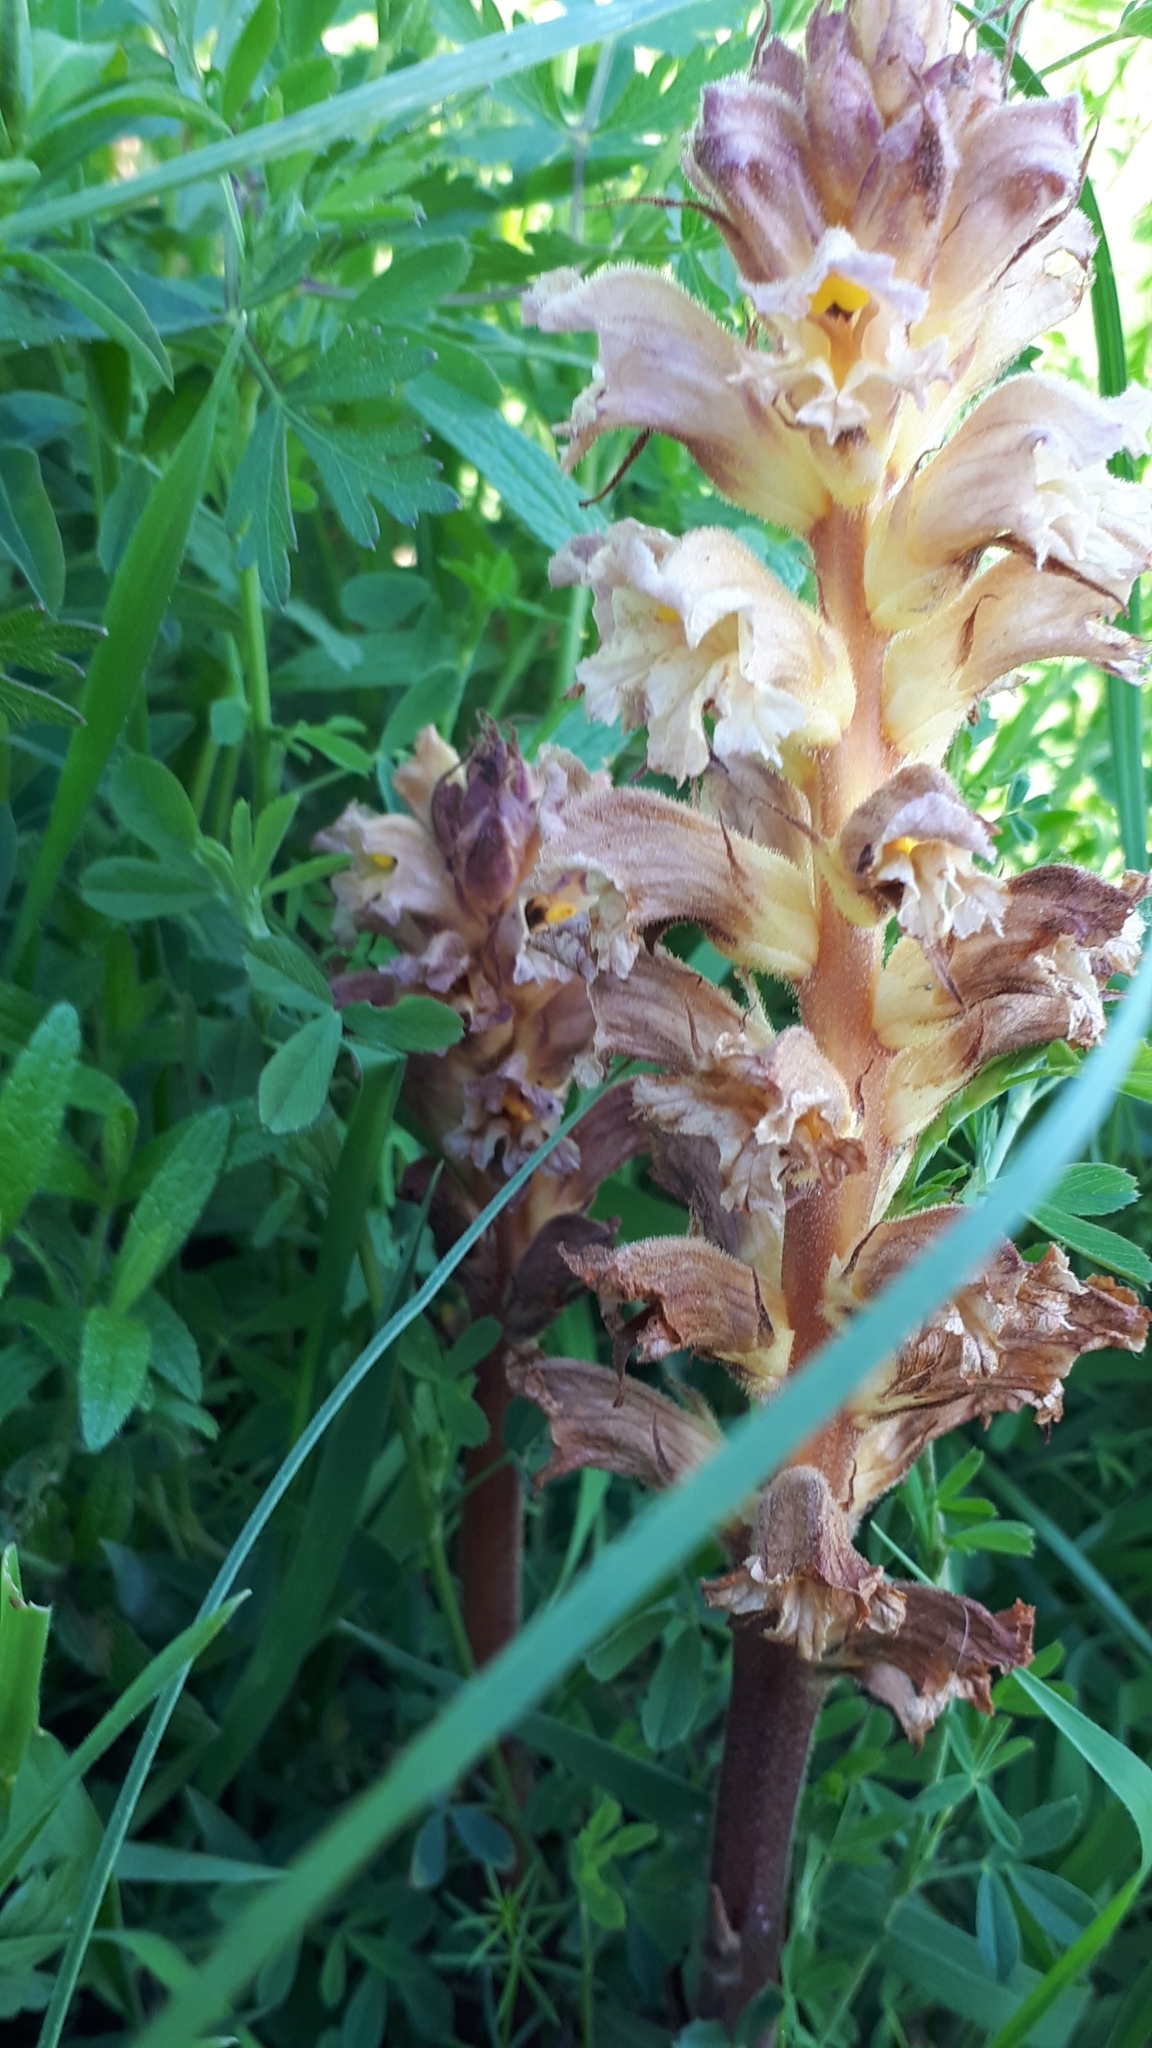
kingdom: Plantae
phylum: Tracheophyta
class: Magnoliopsida
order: Lamiales
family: Orobanchaceae
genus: Orobanche
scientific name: Orobanche lutea
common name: Yellow broomrape
